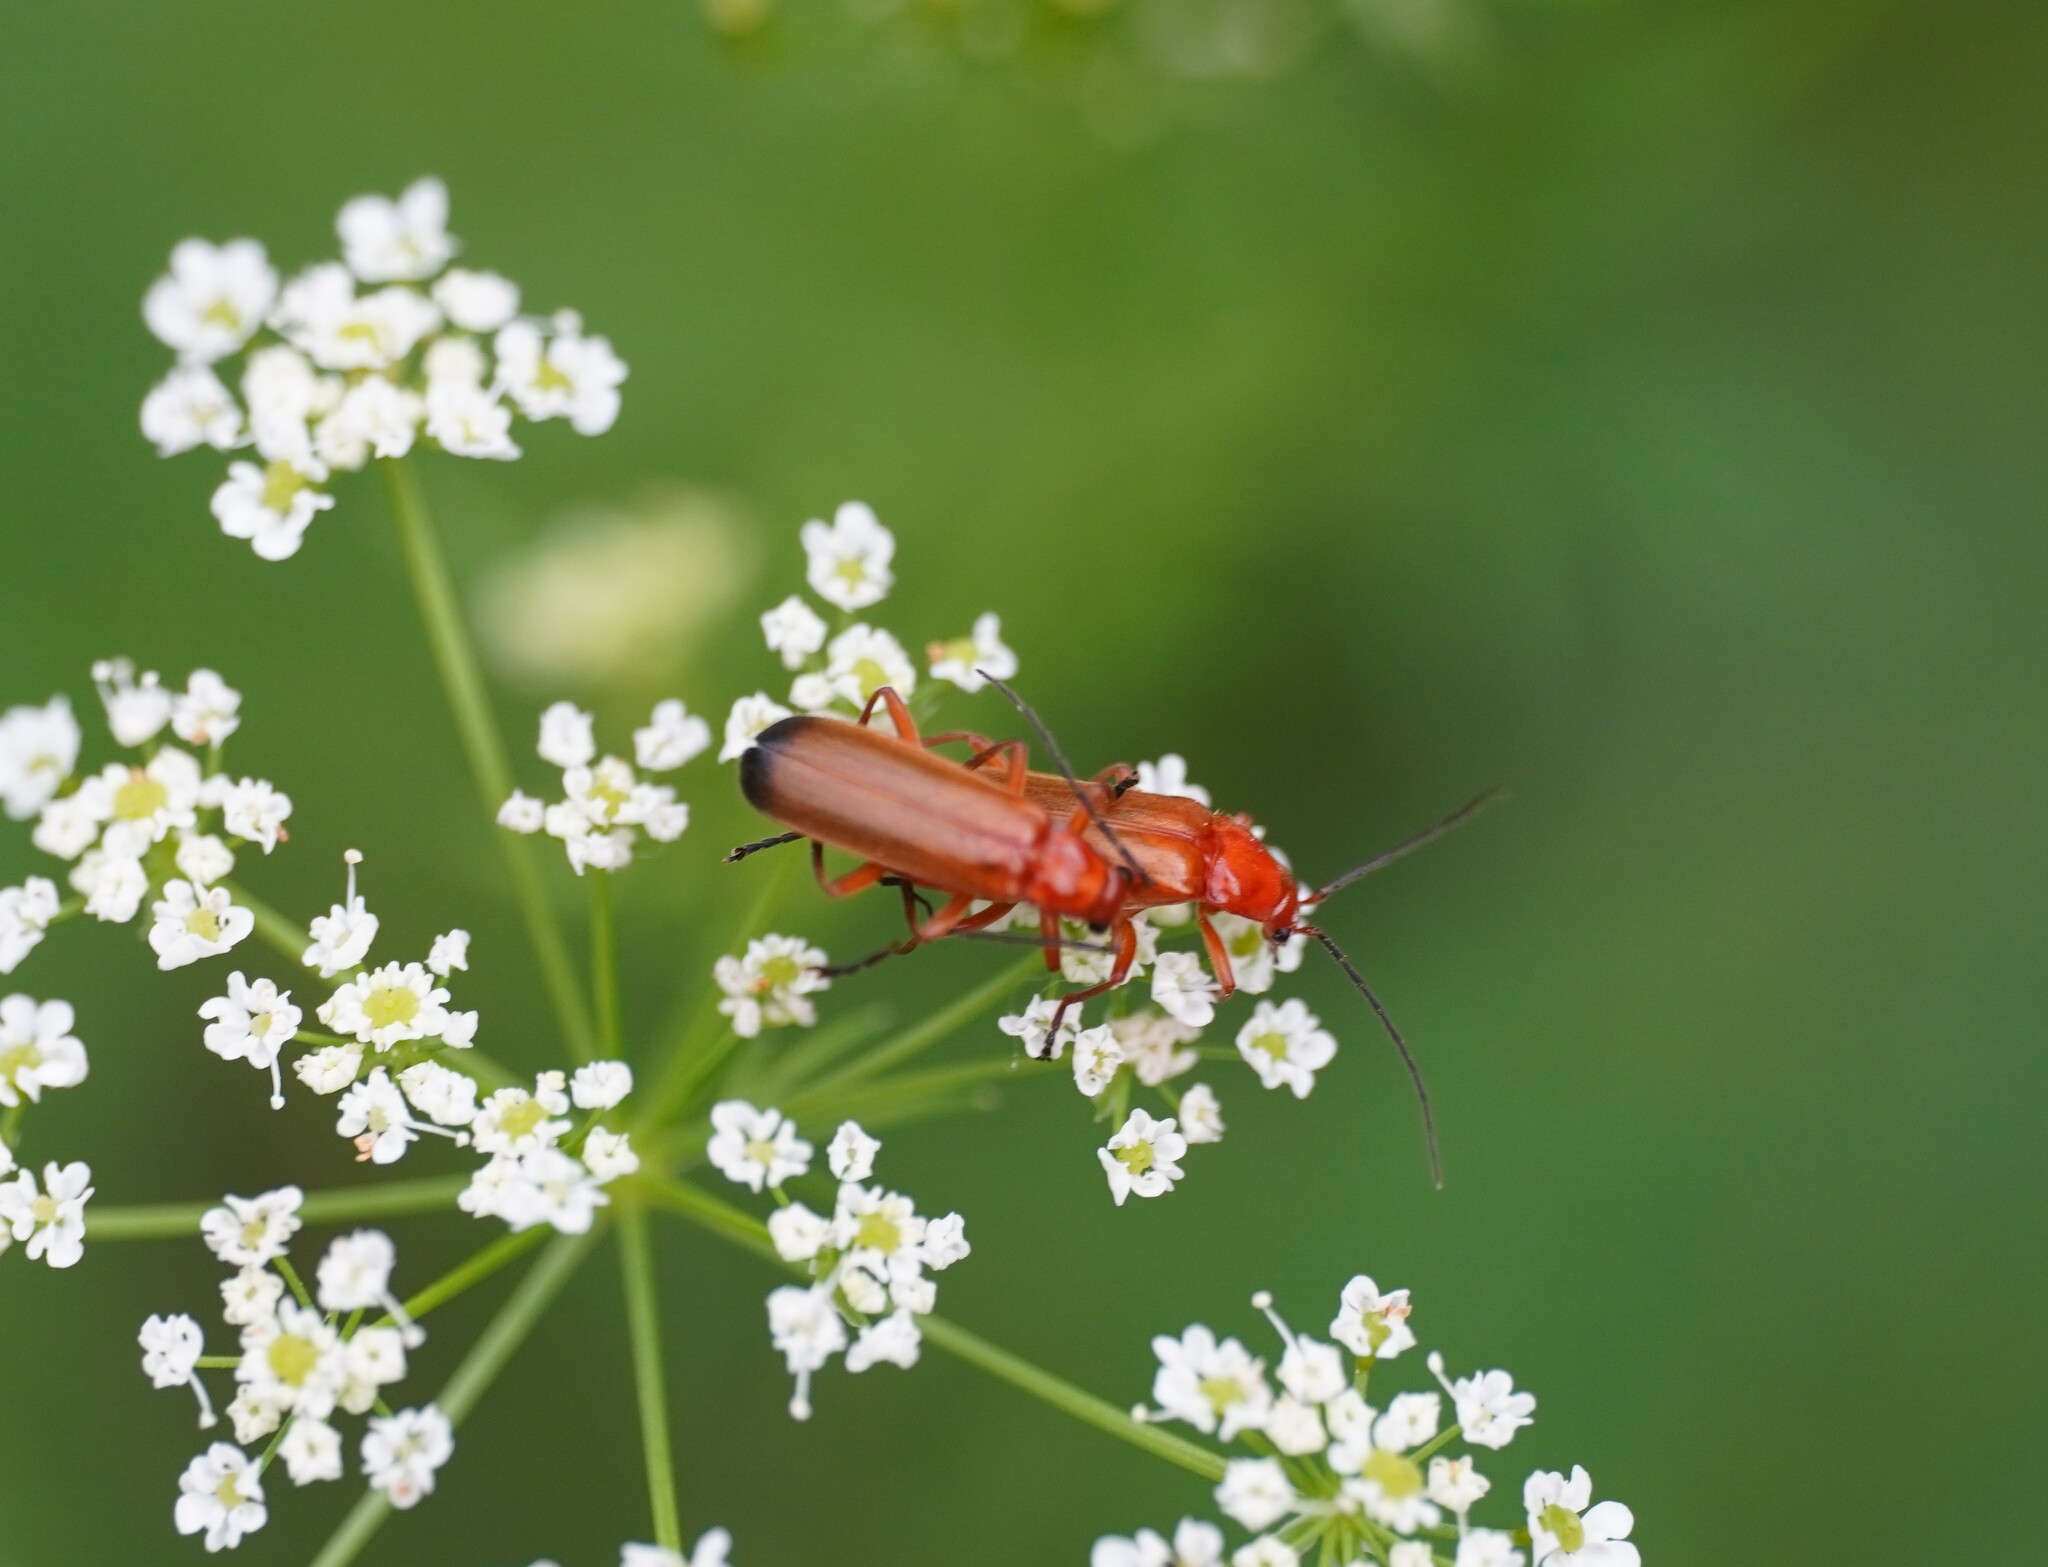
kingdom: Animalia
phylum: Arthropoda
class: Insecta
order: Coleoptera
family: Cantharidae
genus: Rhagonycha
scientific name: Rhagonycha fulva
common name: Common red soldier beetle
